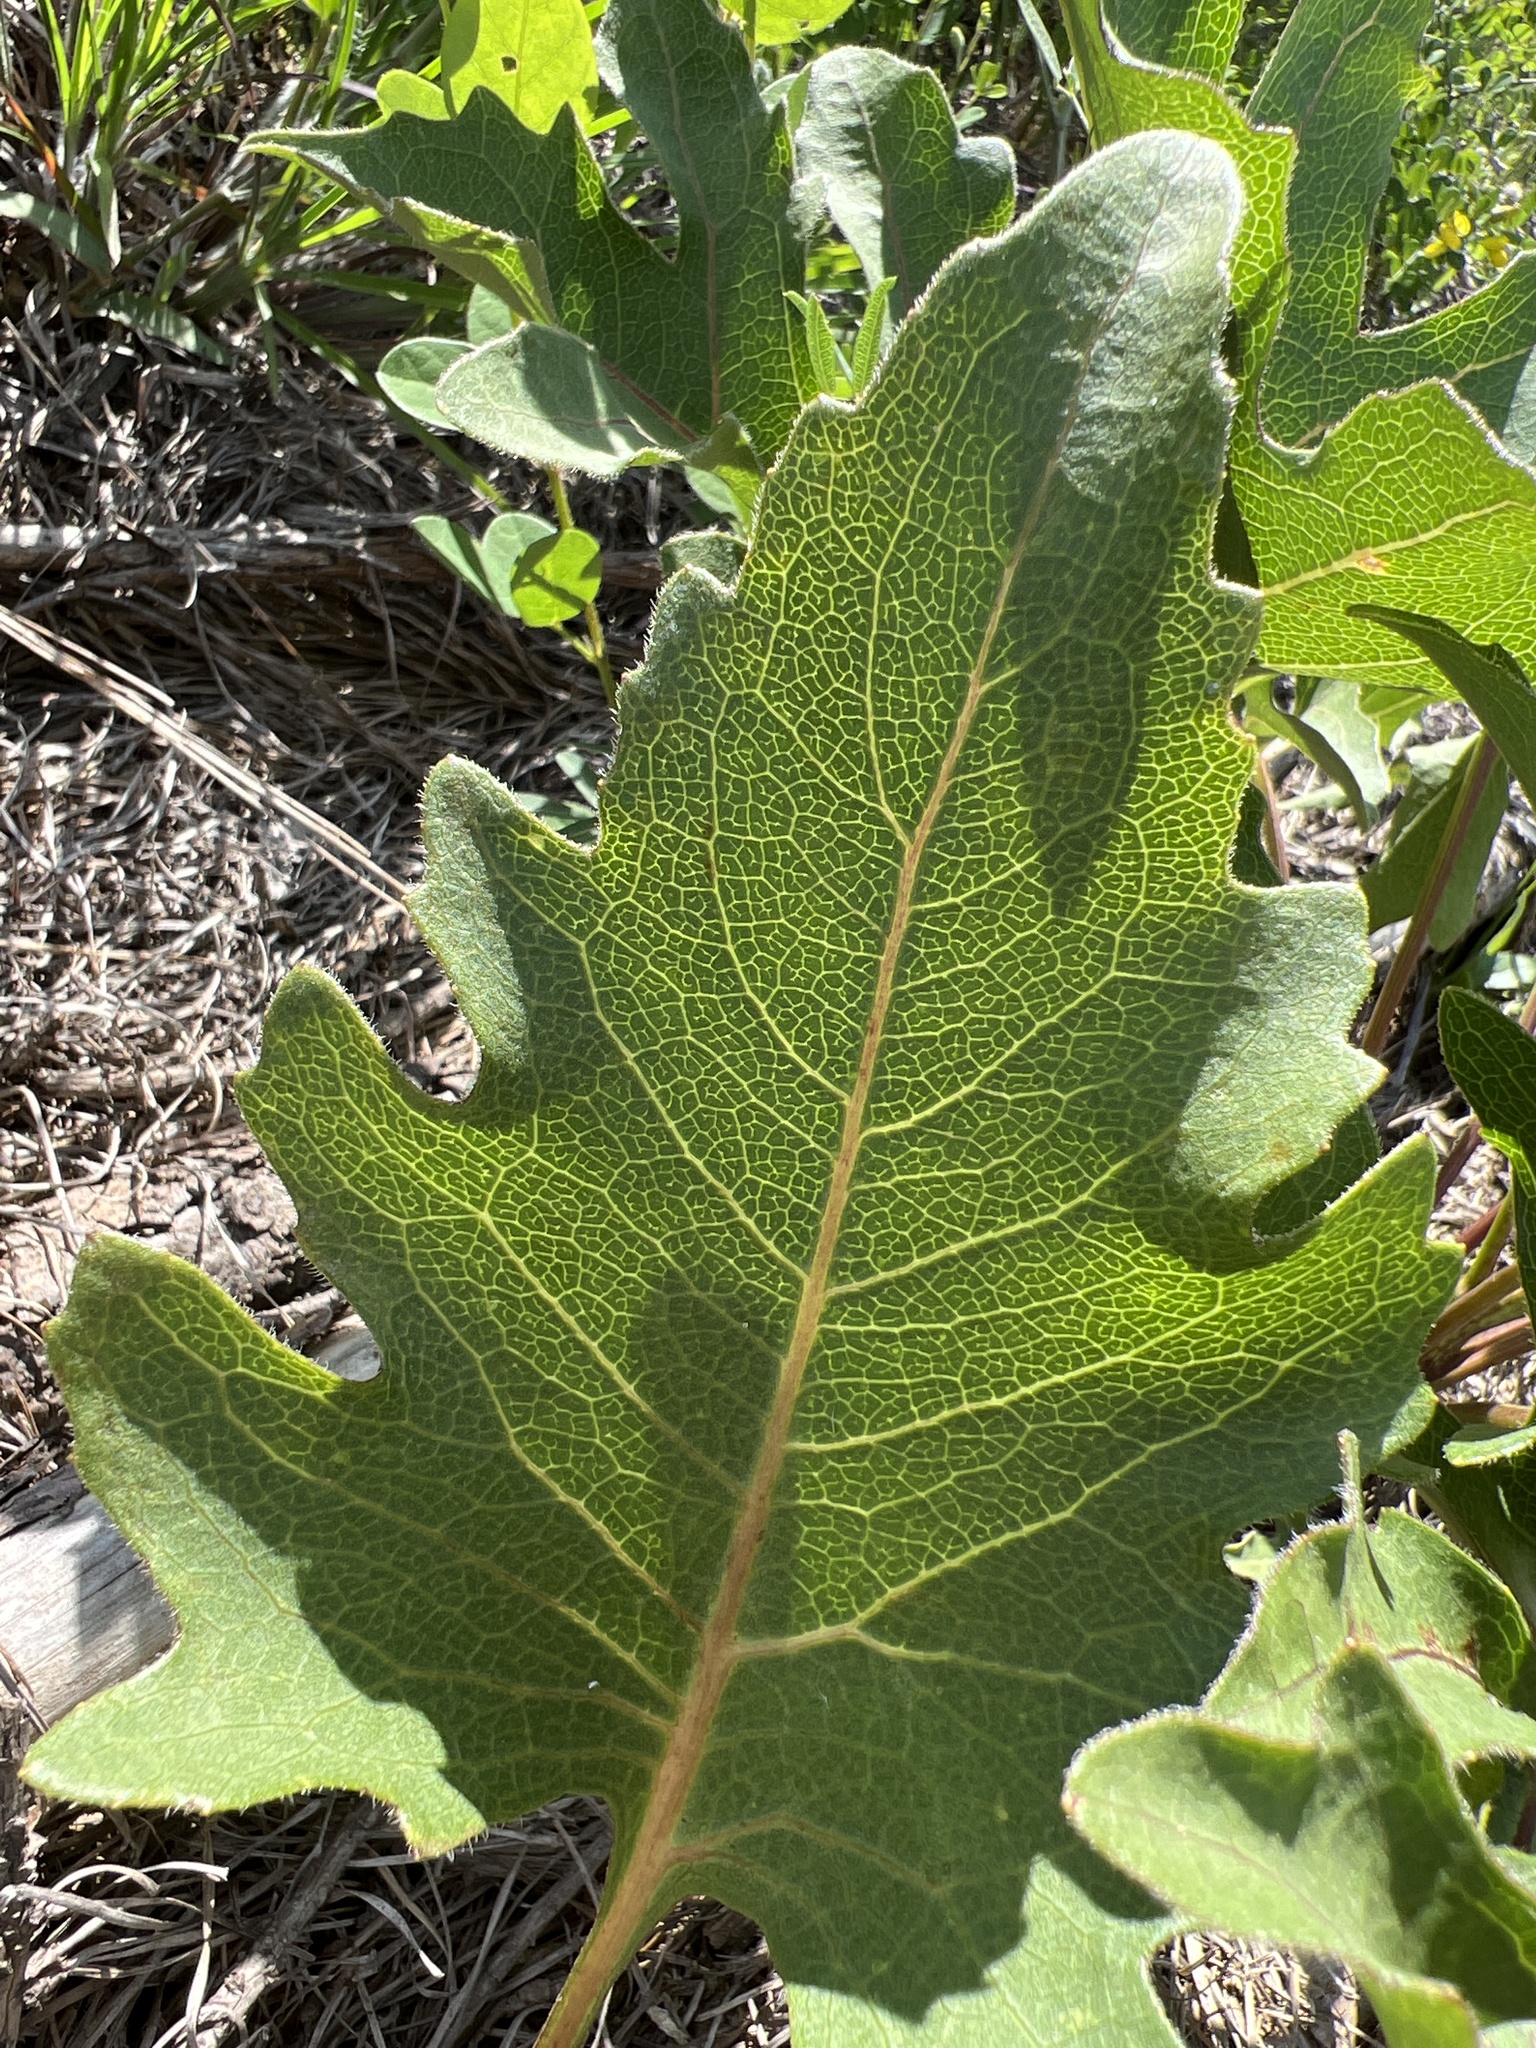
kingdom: Plantae
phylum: Tracheophyta
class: Magnoliopsida
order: Asterales
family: Asteraceae
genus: Silphium
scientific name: Silphium compositum
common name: Lesser basal-leaf rosinweed
